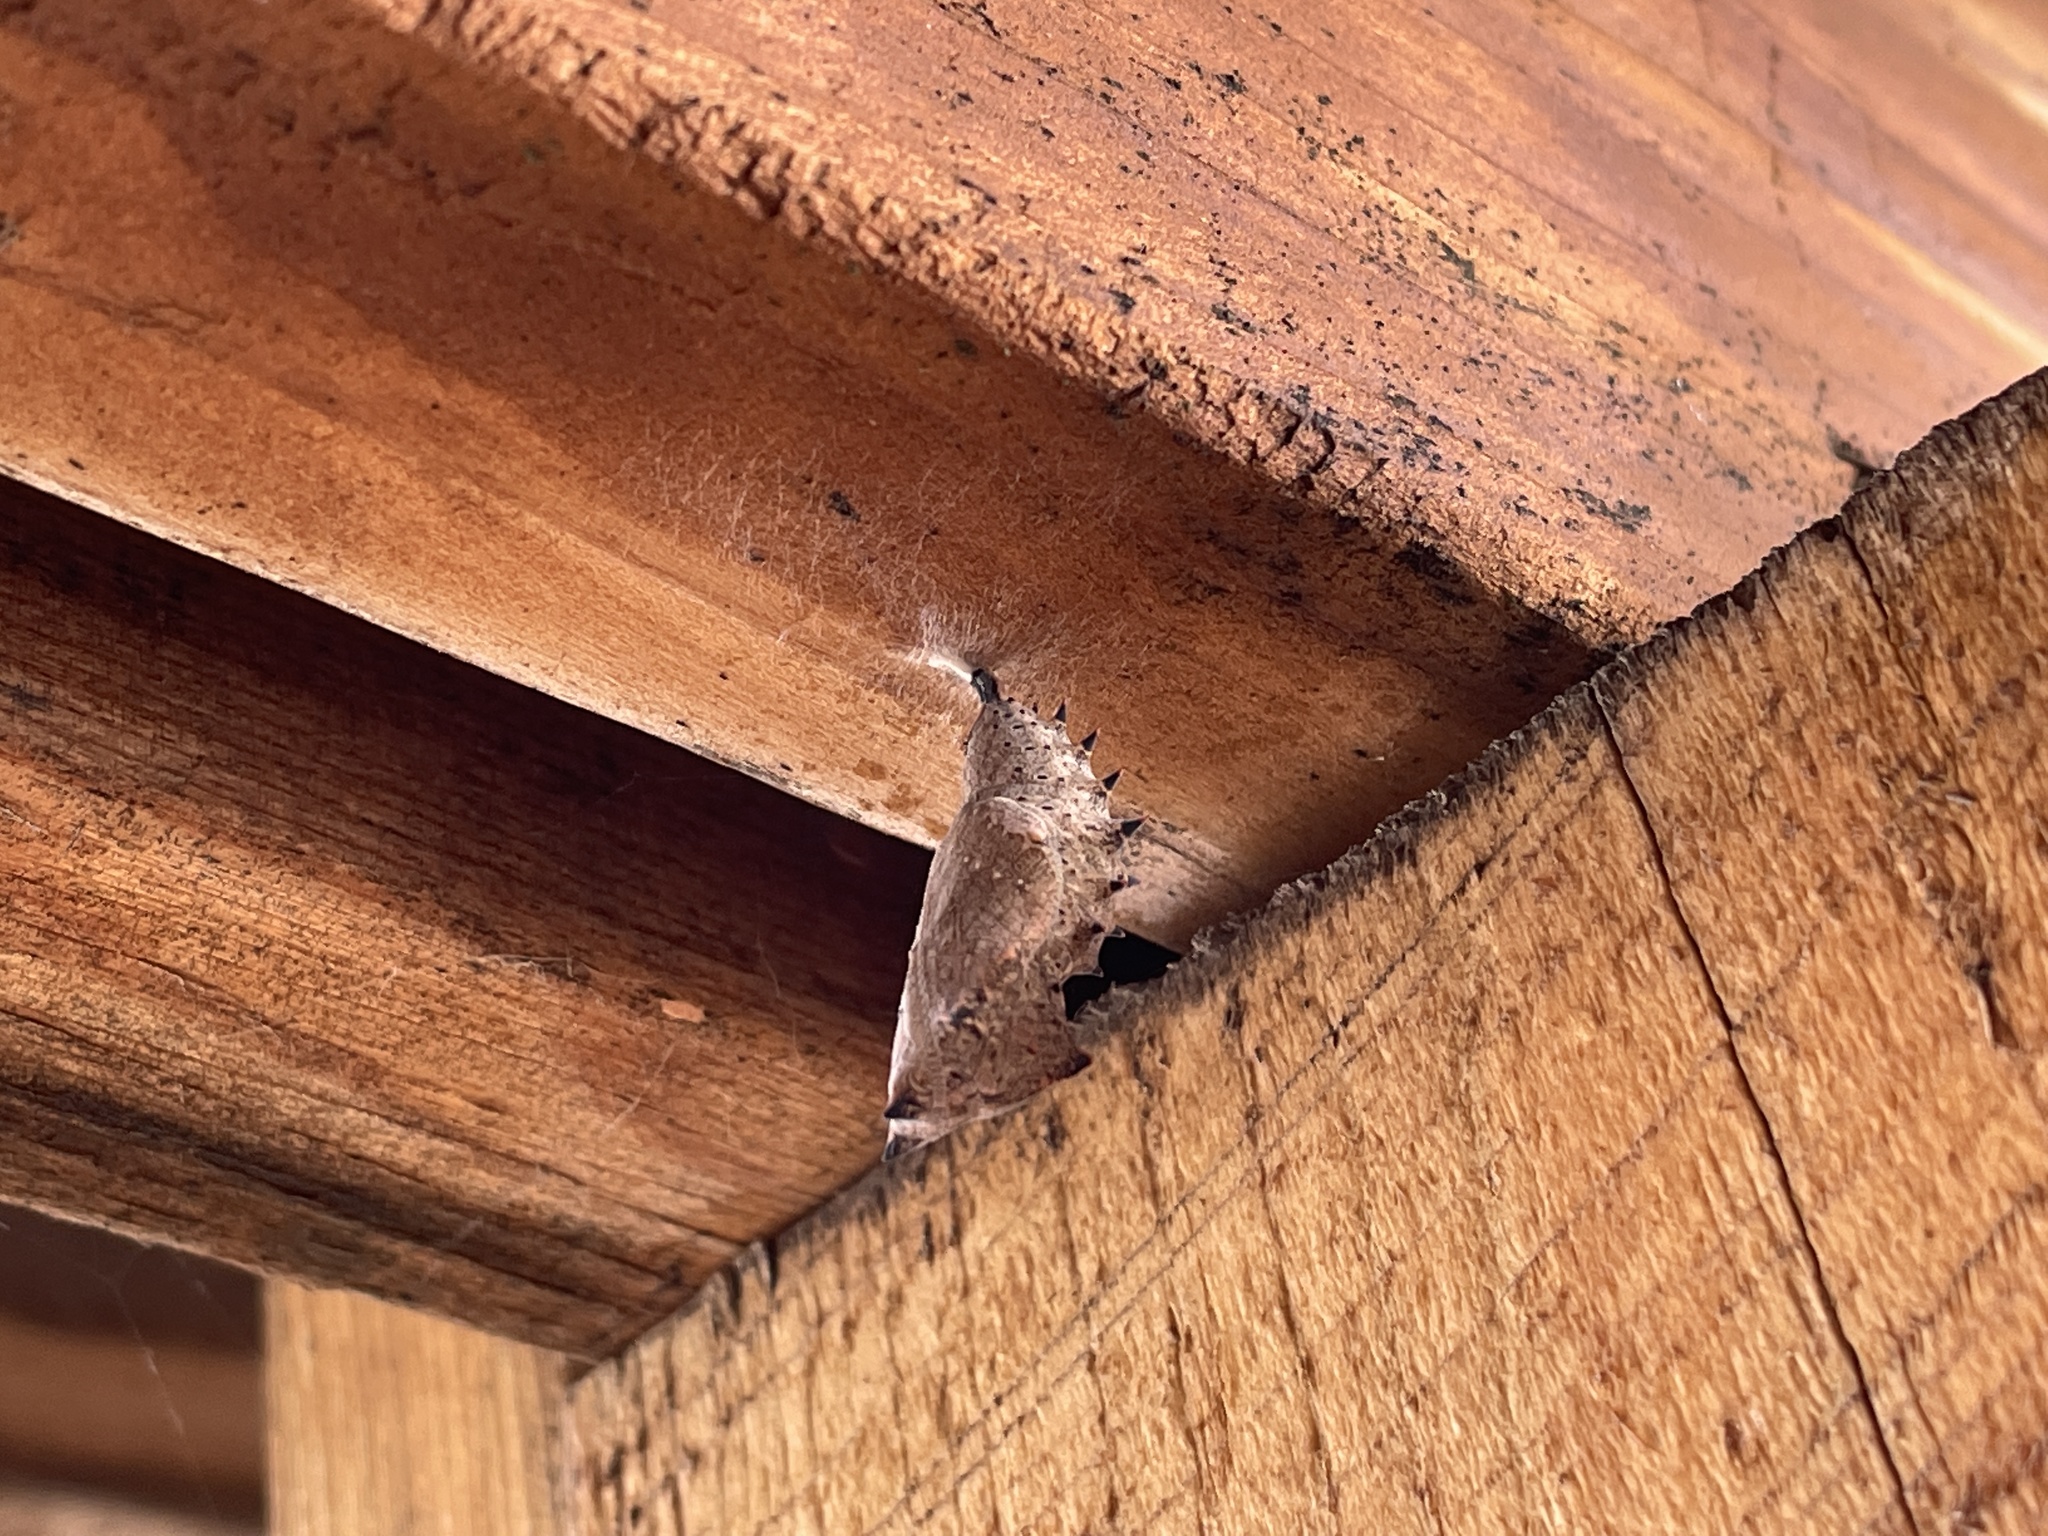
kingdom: Animalia
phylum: Arthropoda
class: Insecta
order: Lepidoptera
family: Nymphalidae
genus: Nymphalis
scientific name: Nymphalis antiopa
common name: Camberwell beauty
